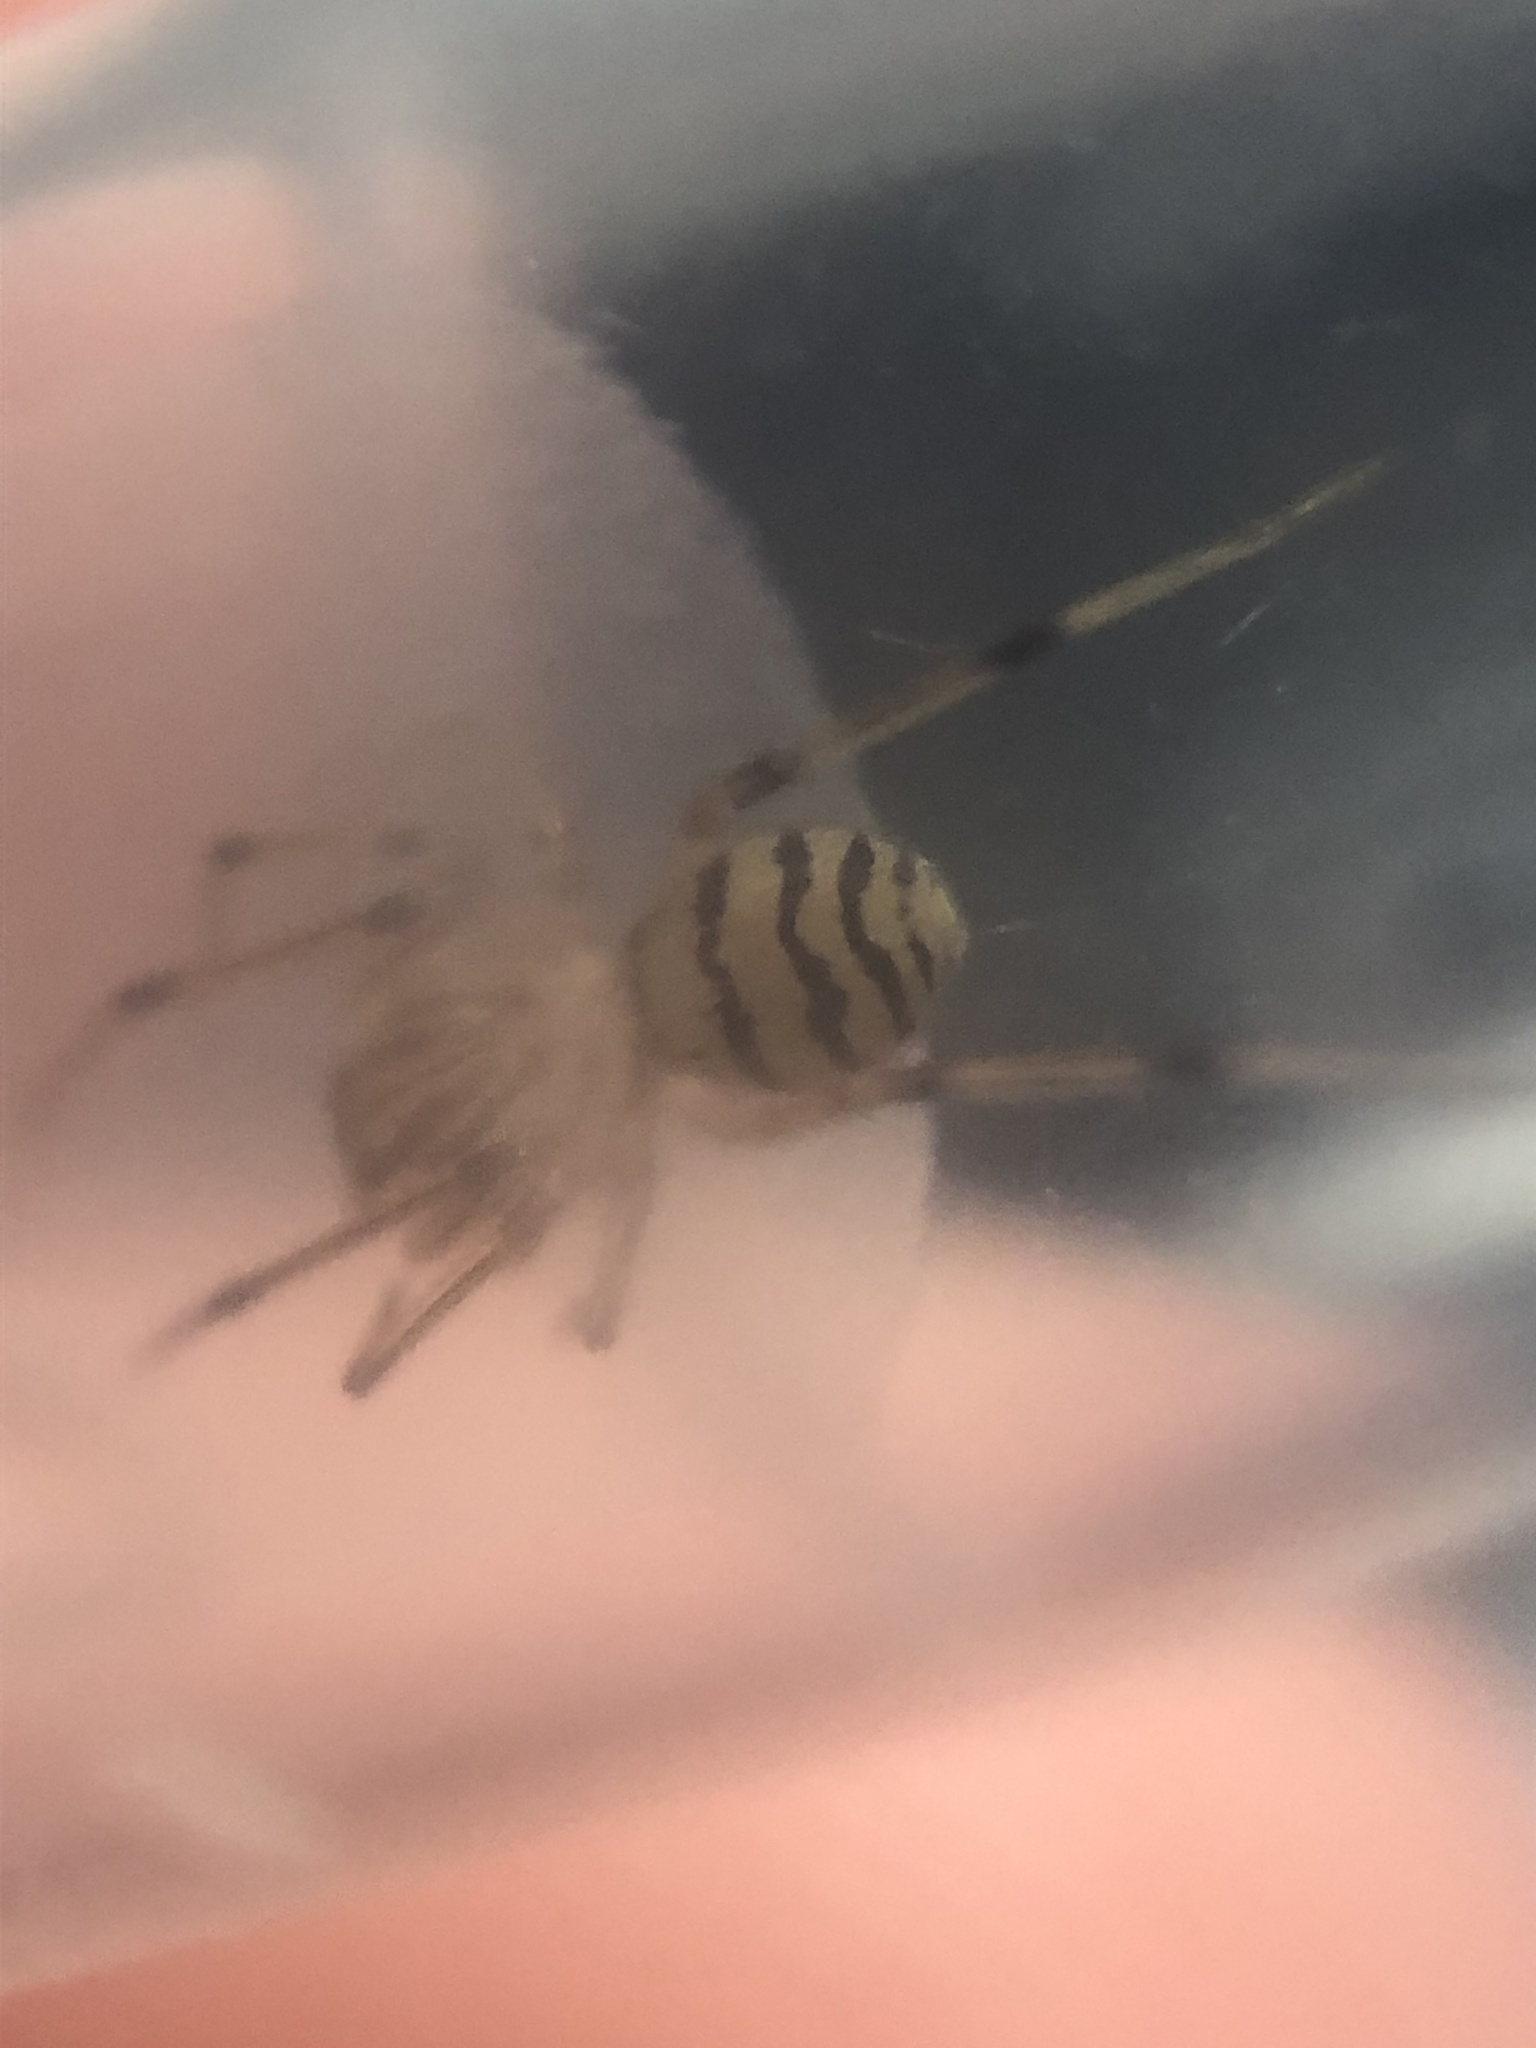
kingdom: Animalia
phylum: Arthropoda
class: Arachnida
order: Araneae
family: Scytodidae
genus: Dictis
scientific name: Dictis striatipes
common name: Spider
